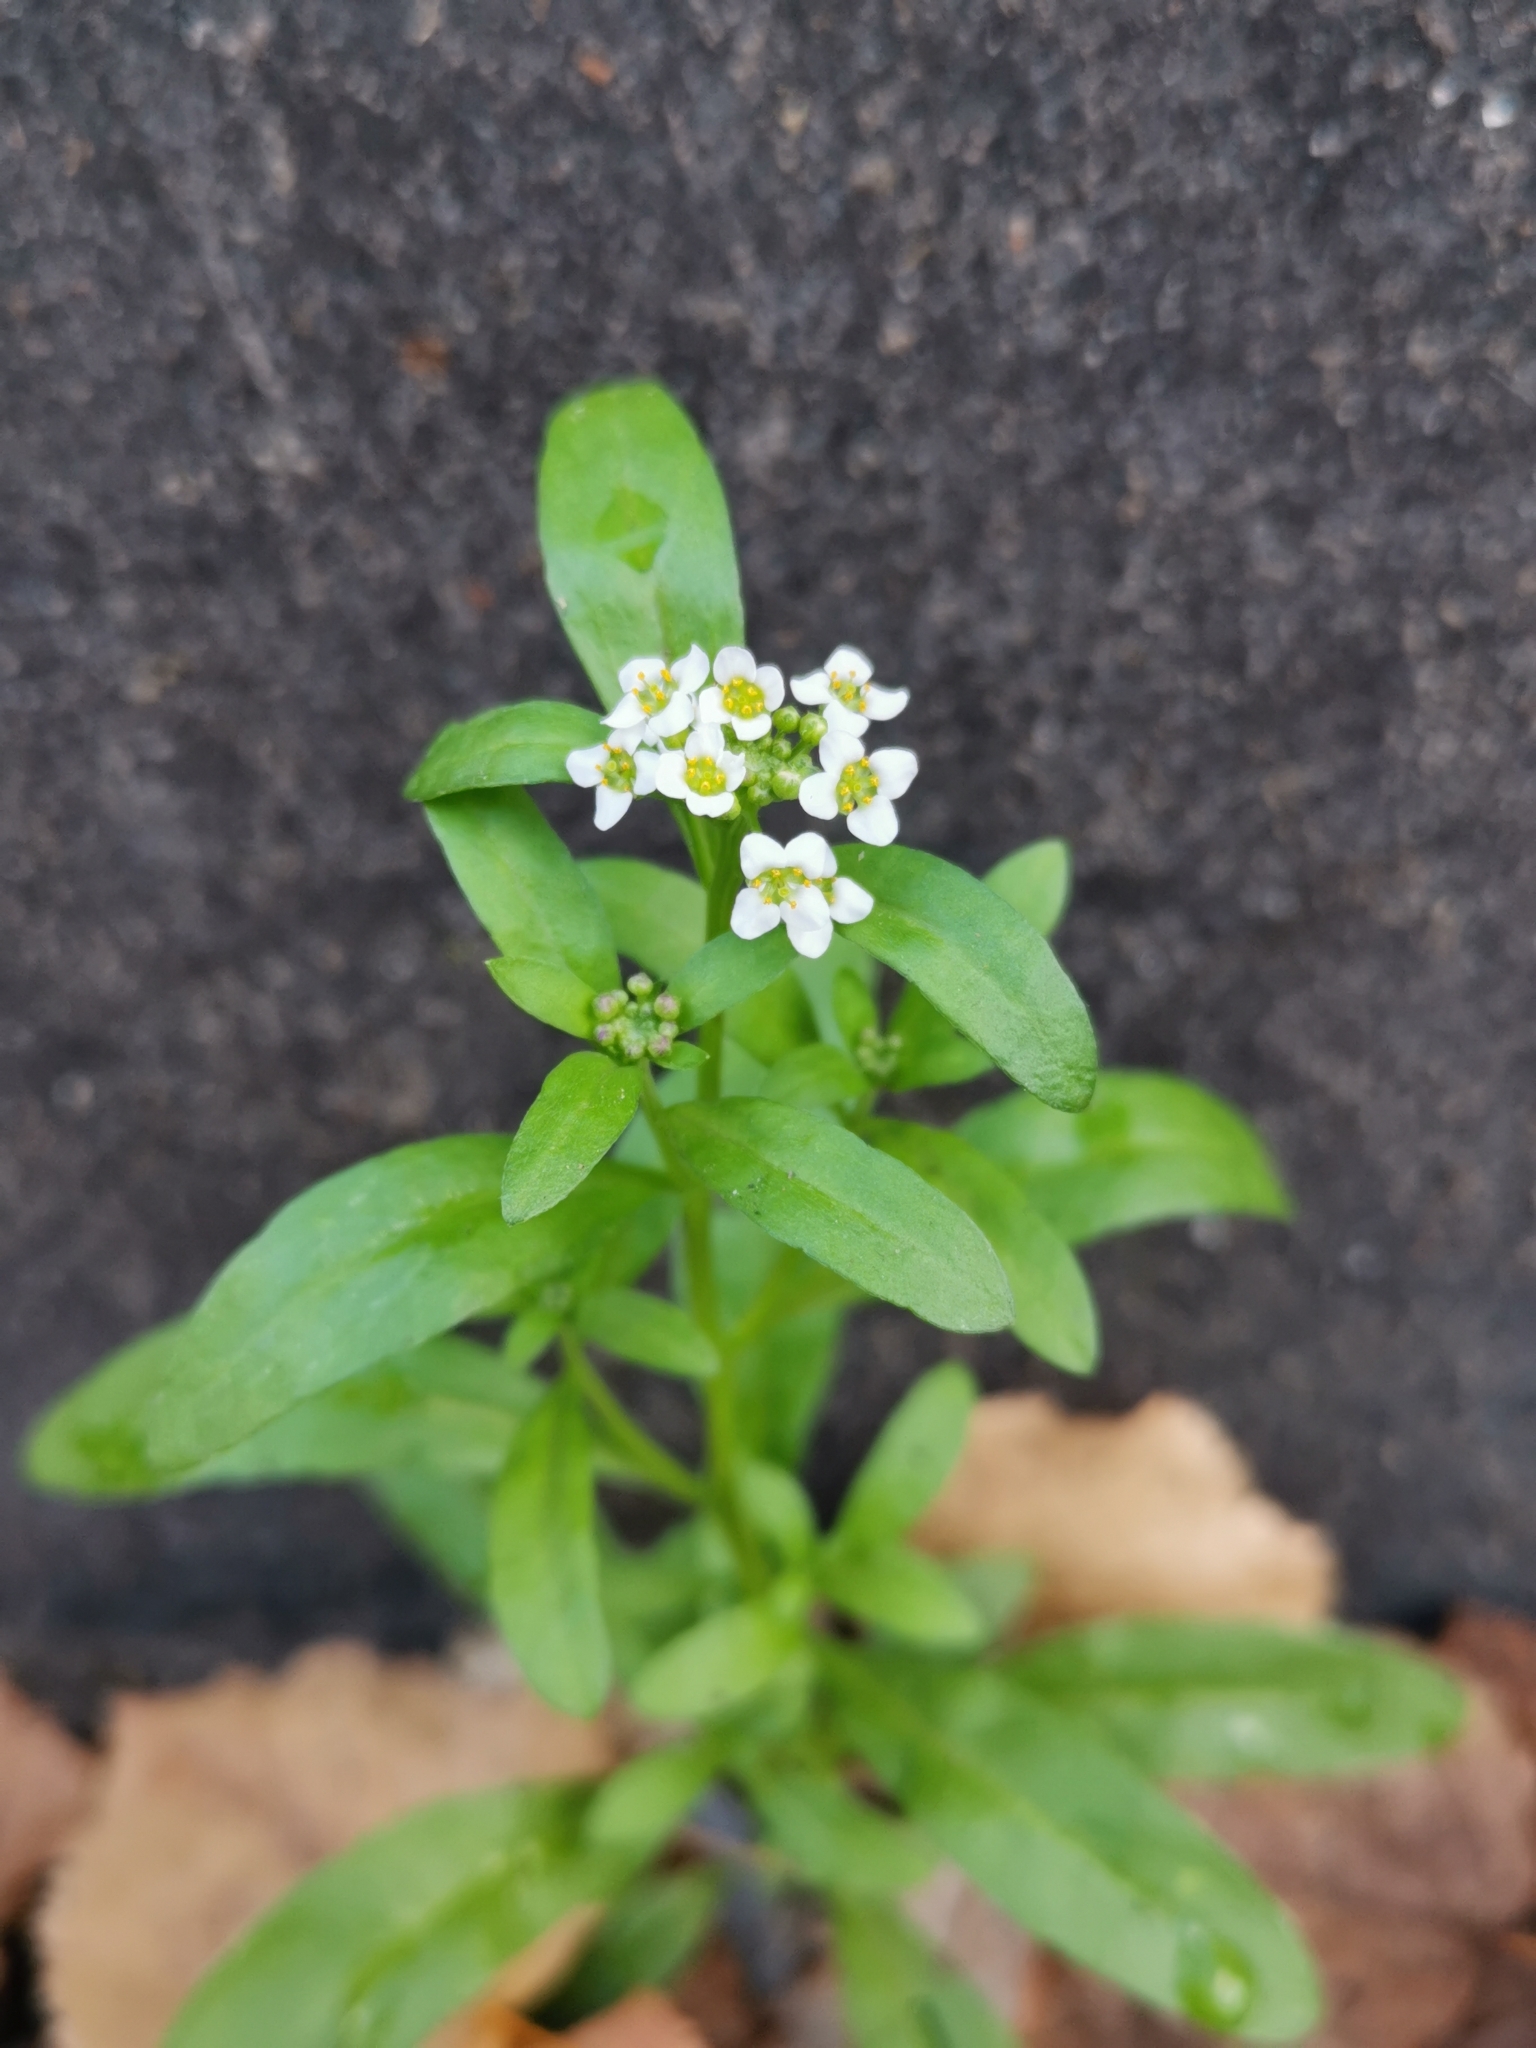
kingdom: Plantae
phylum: Tracheophyta
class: Magnoliopsida
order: Brassicales
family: Brassicaceae
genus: Lobularia
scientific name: Lobularia maritima
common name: Sweet alison
